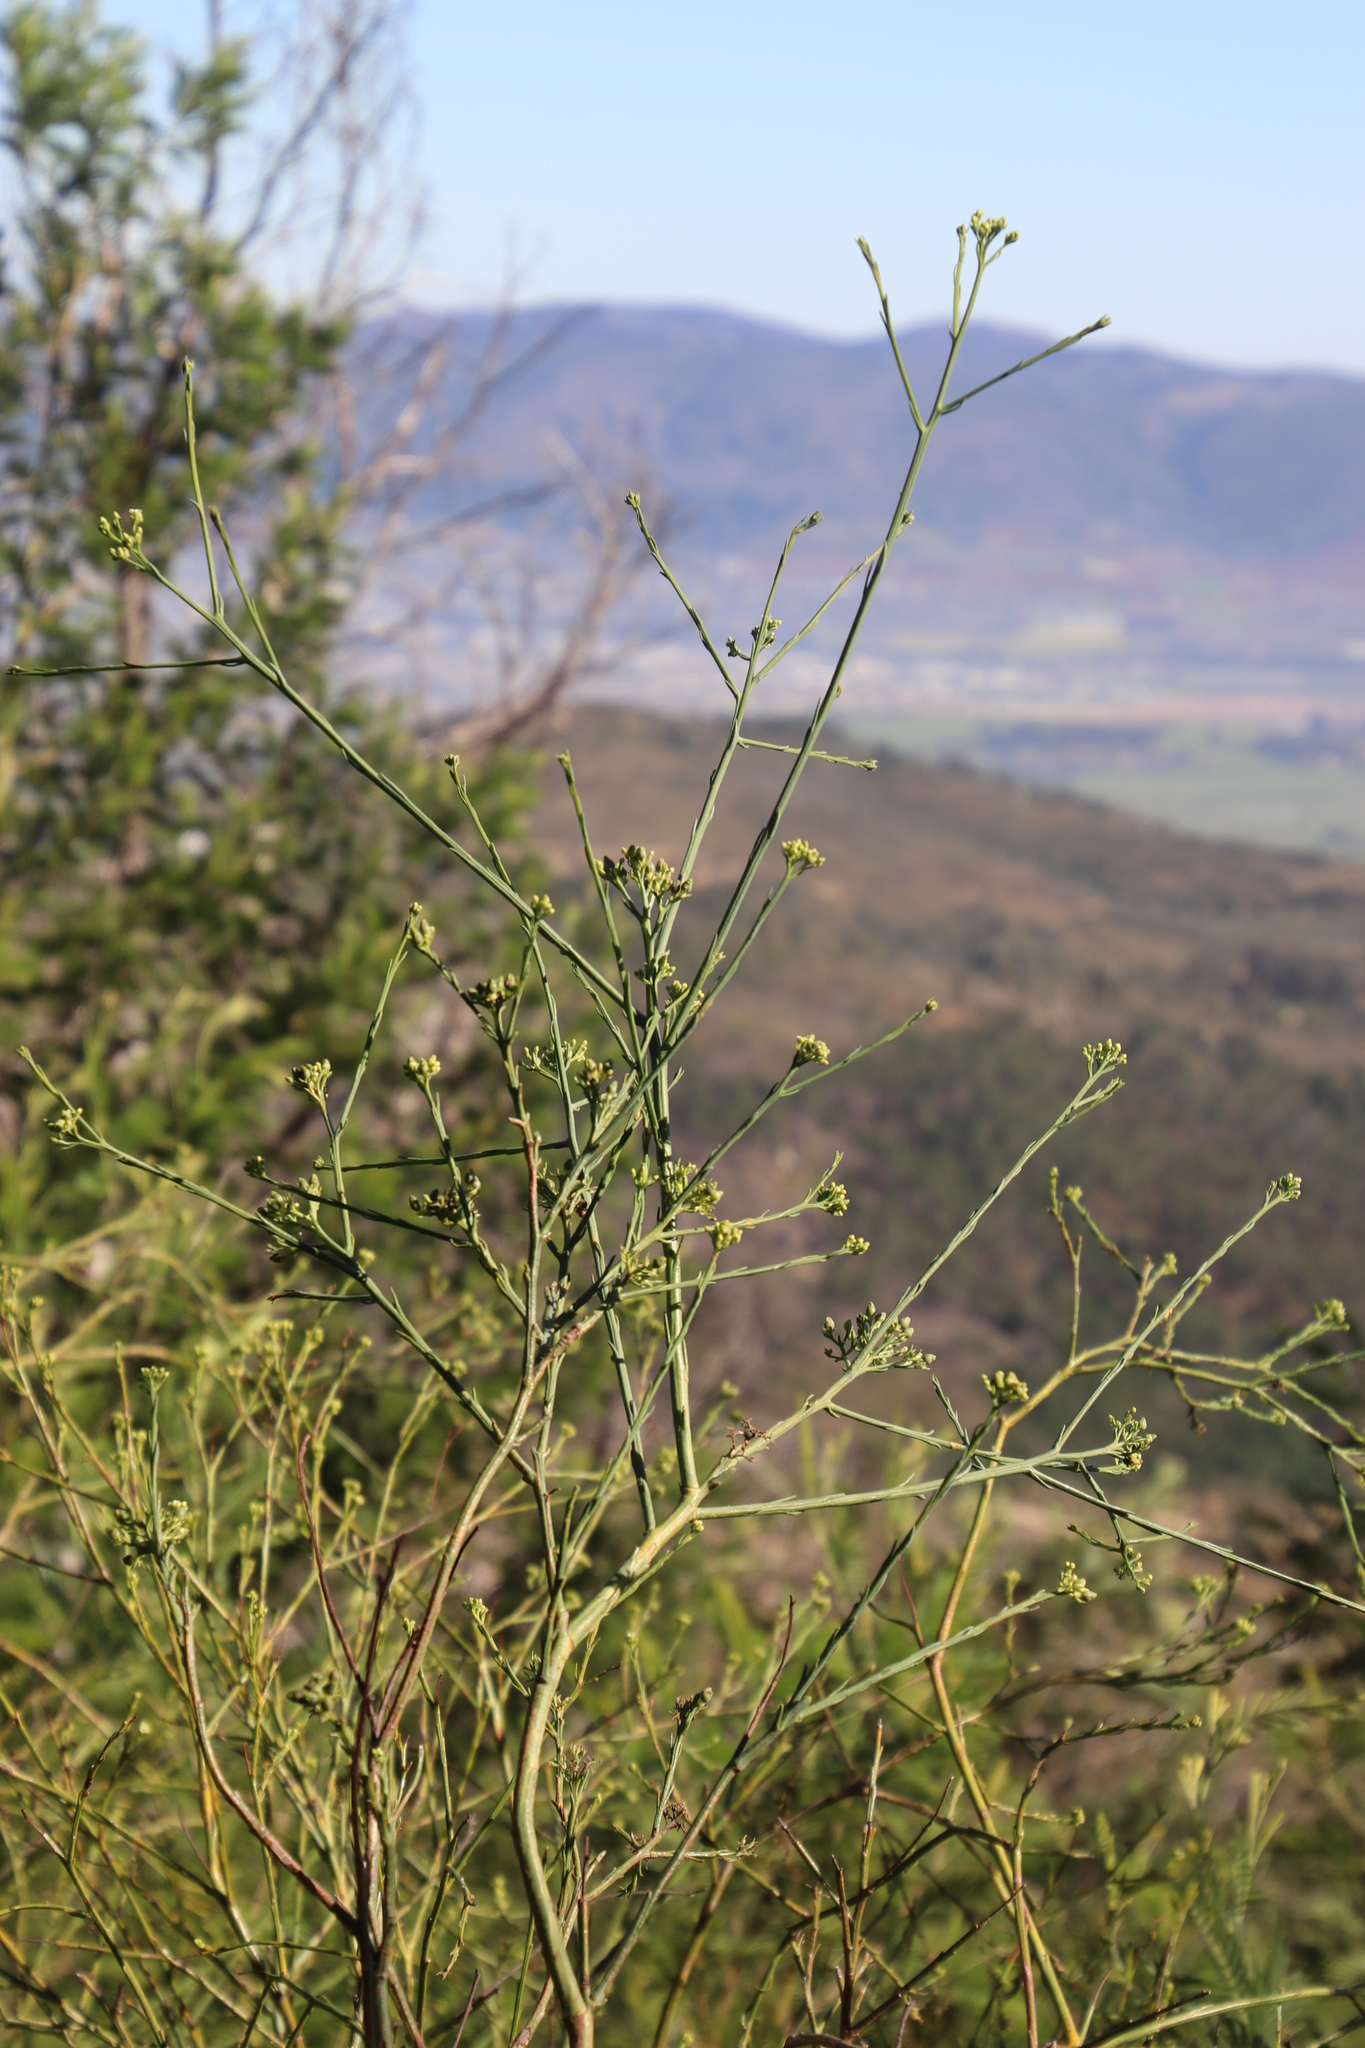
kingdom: Plantae
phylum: Tracheophyta
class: Magnoliopsida
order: Santalales
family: Thesiaceae
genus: Thesium
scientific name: Thesium strictum
